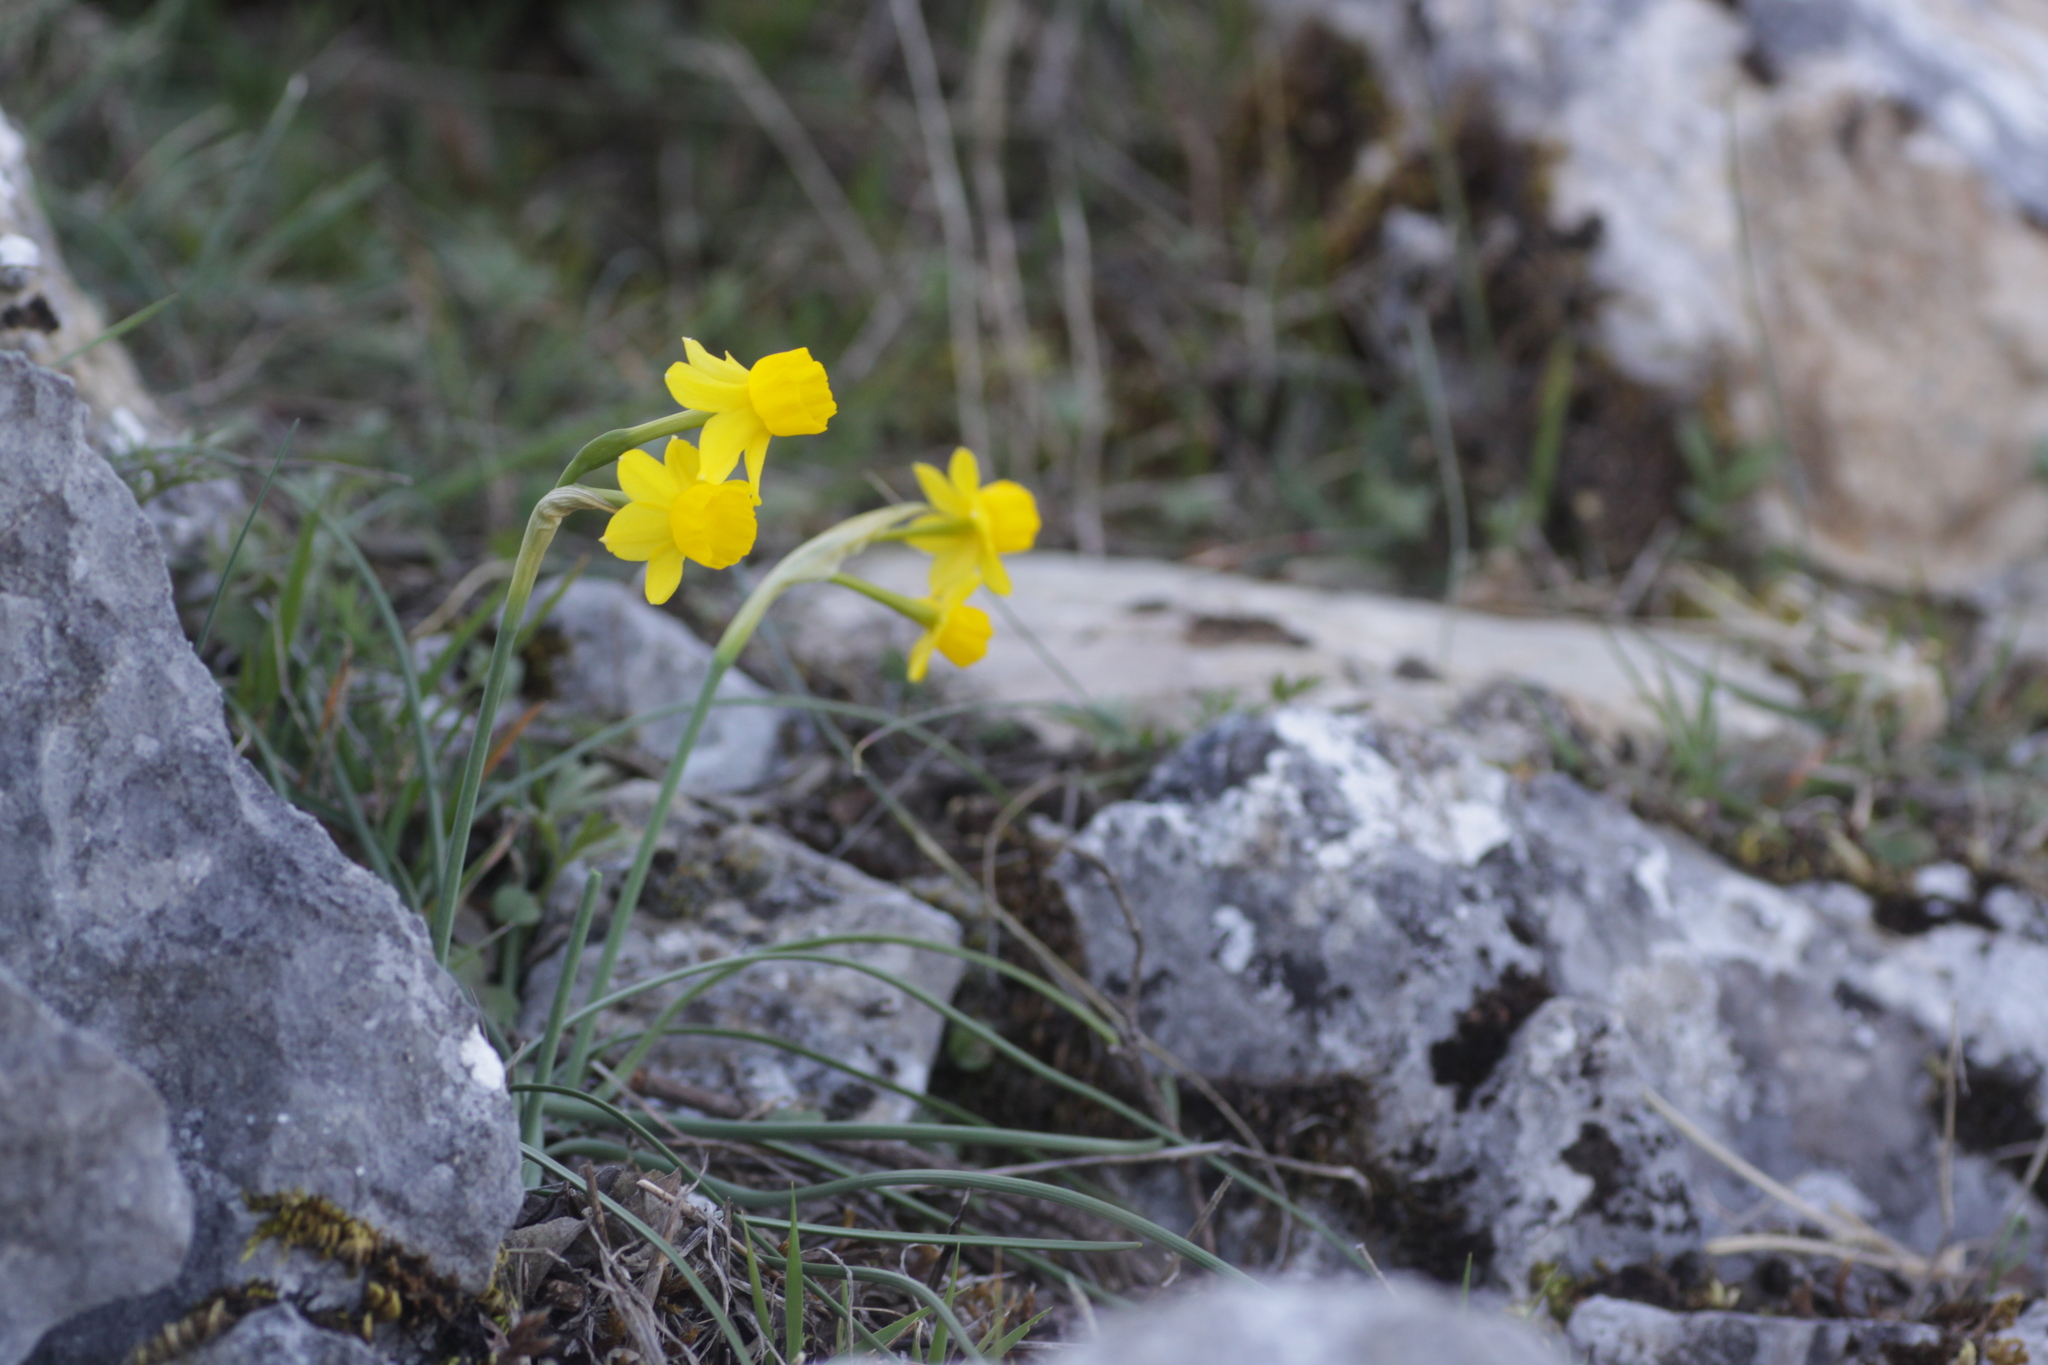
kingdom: Plantae
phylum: Tracheophyta
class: Liliopsida
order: Asparagales
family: Amaryllidaceae
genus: Narcissus
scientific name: Narcissus assoanus
